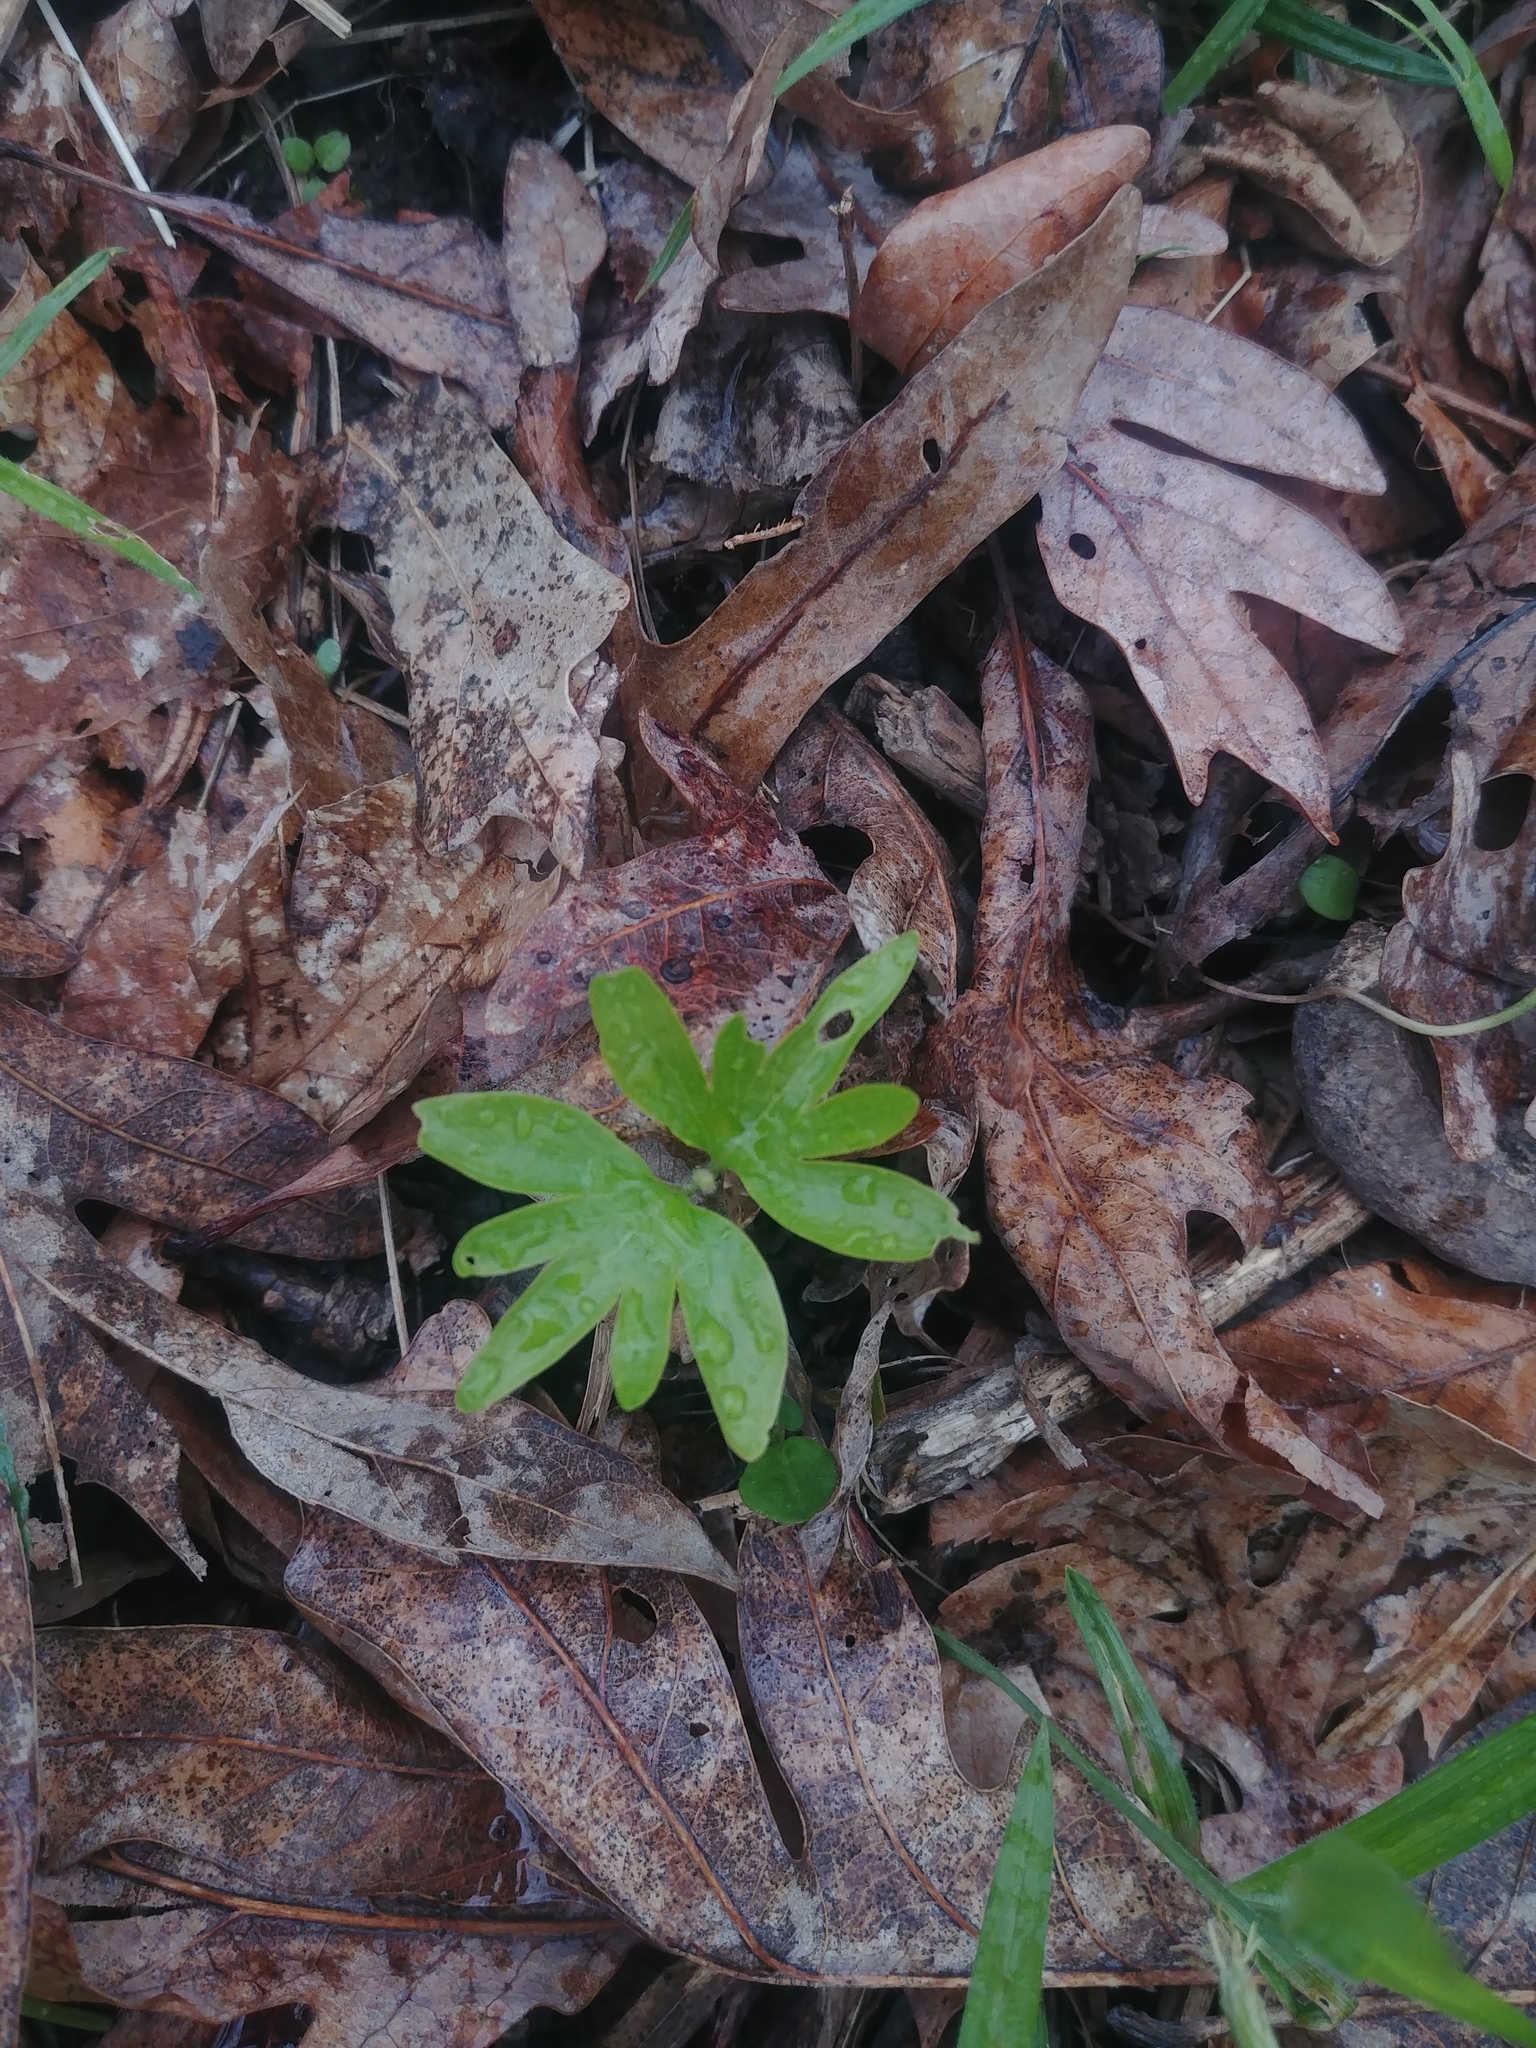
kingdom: Plantae
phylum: Tracheophyta
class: Magnoliopsida
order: Malvales
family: Malvaceae
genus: Tilia
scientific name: Tilia americana
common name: Basswood
